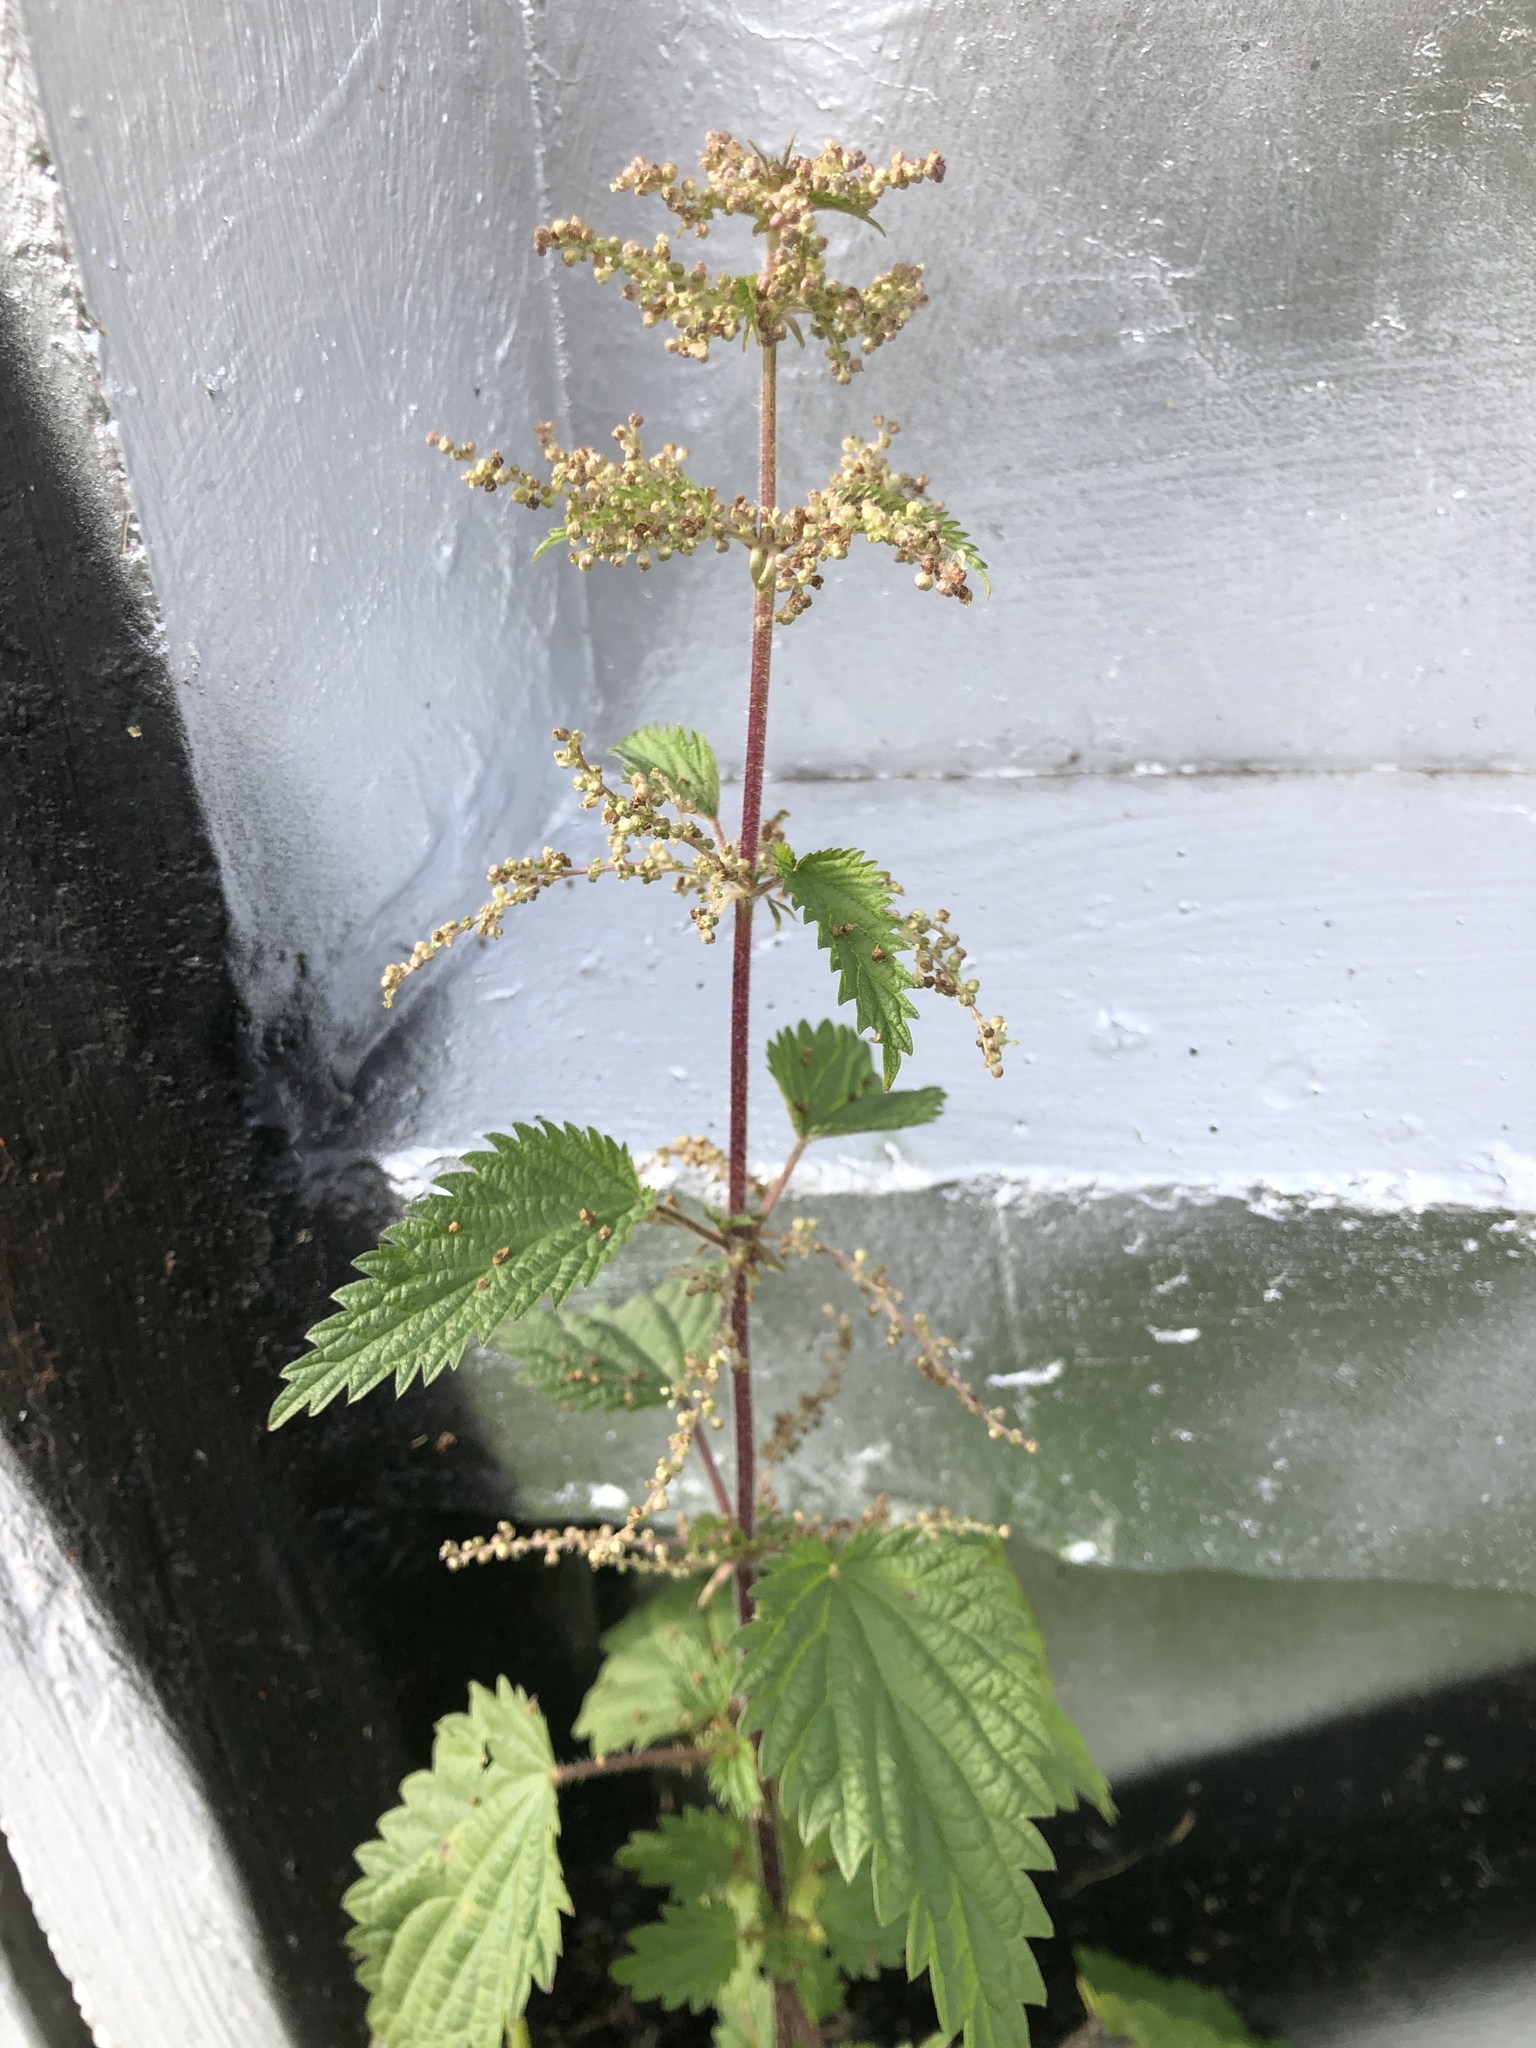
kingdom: Plantae
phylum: Tracheophyta
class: Magnoliopsida
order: Rosales
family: Urticaceae
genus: Urtica
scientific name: Urtica dioica
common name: Common nettle
